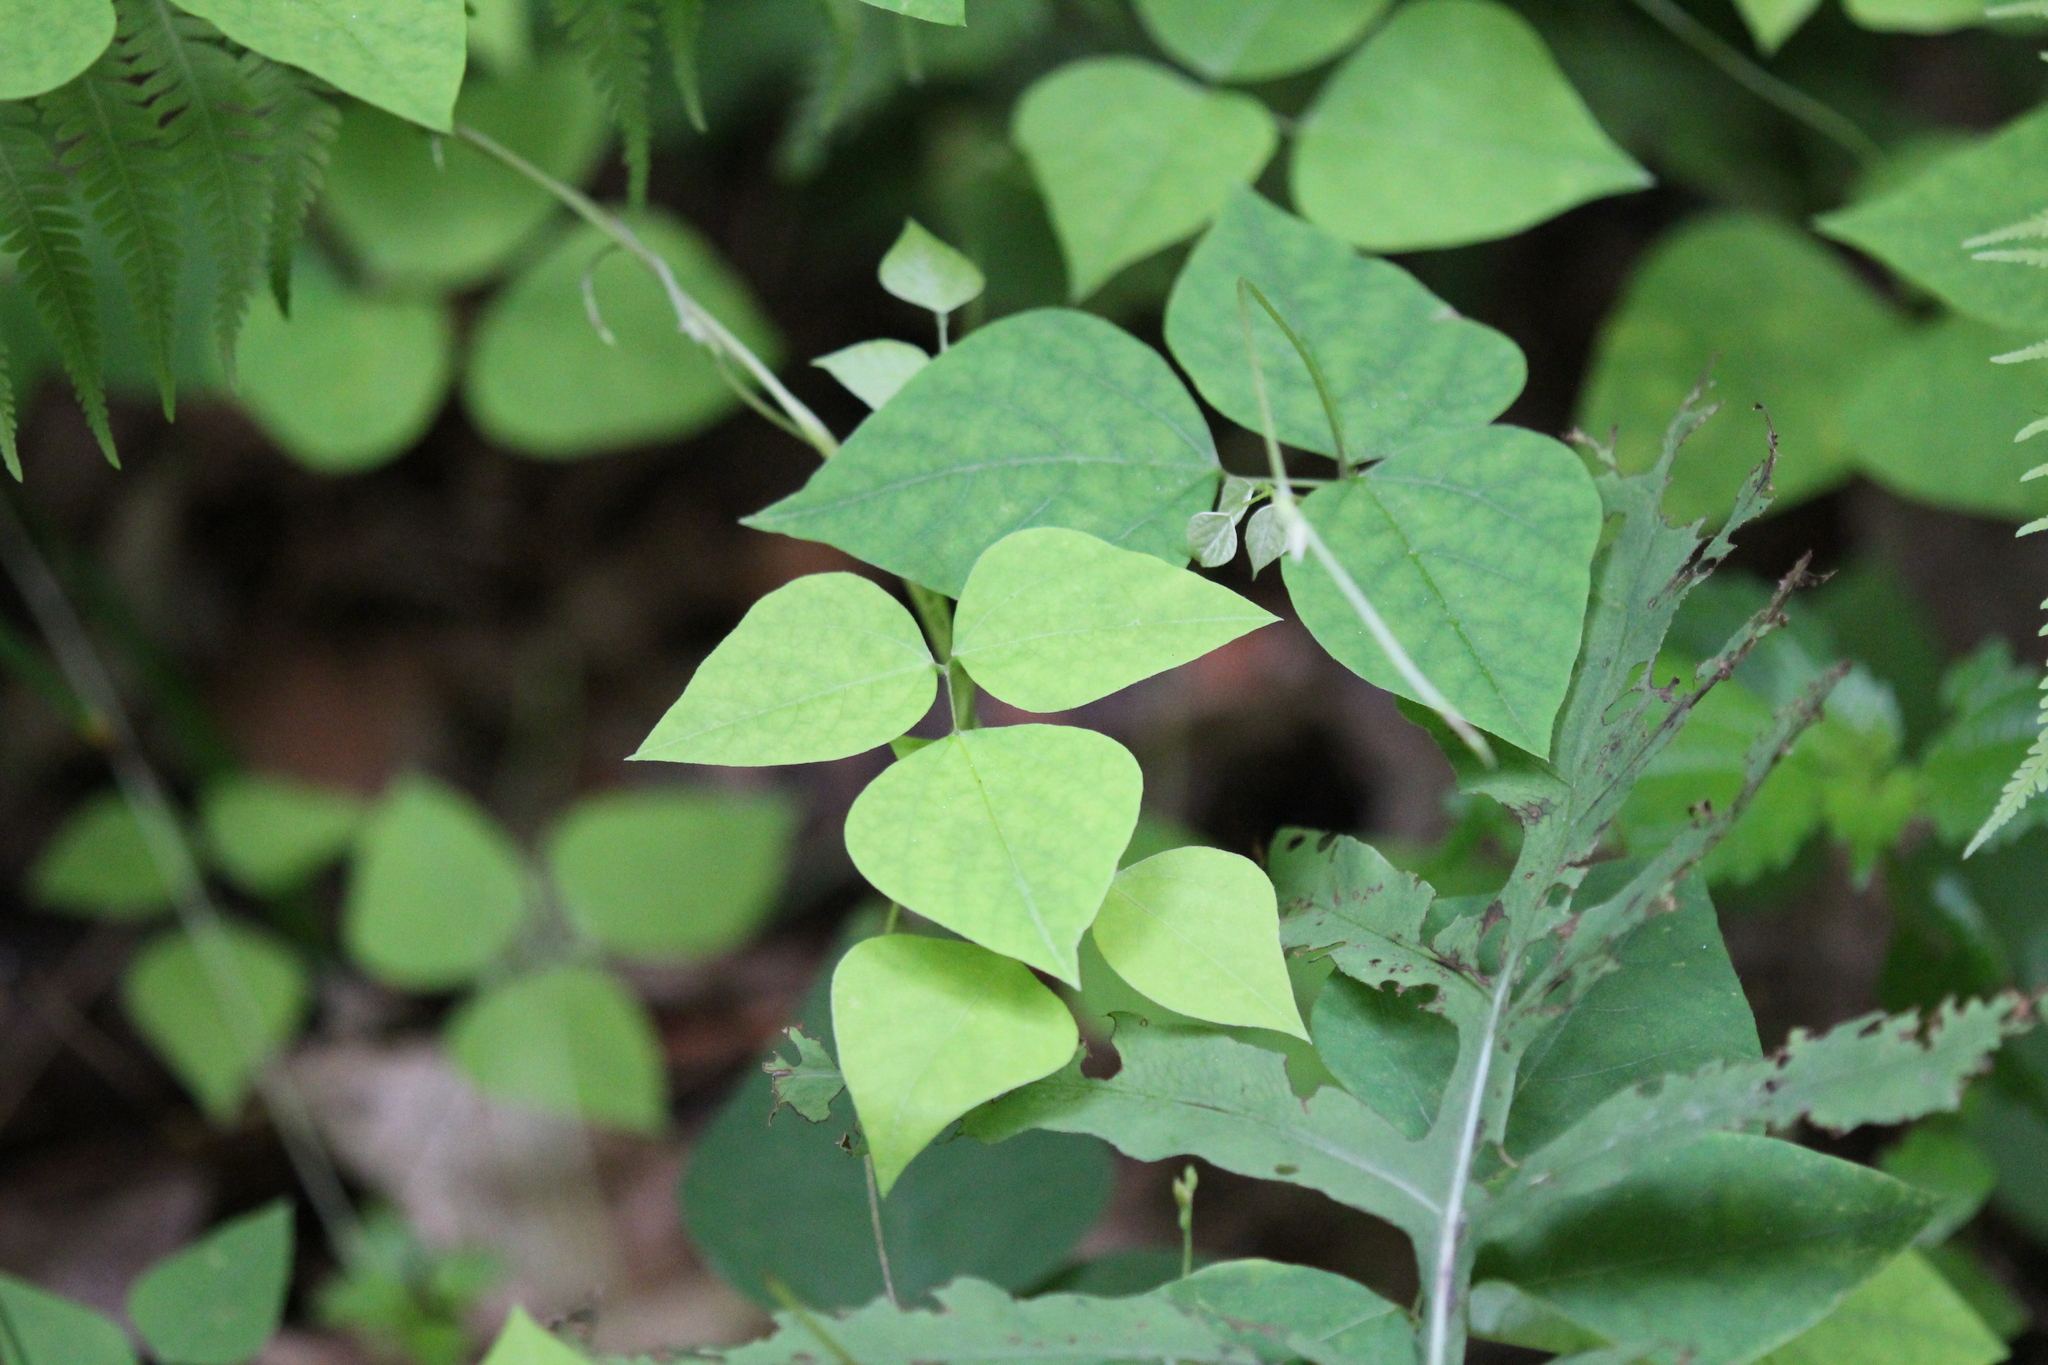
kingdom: Plantae
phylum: Tracheophyta
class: Magnoliopsida
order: Fabales
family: Fabaceae
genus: Amphicarpaea
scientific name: Amphicarpaea bracteata
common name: American hog peanut
